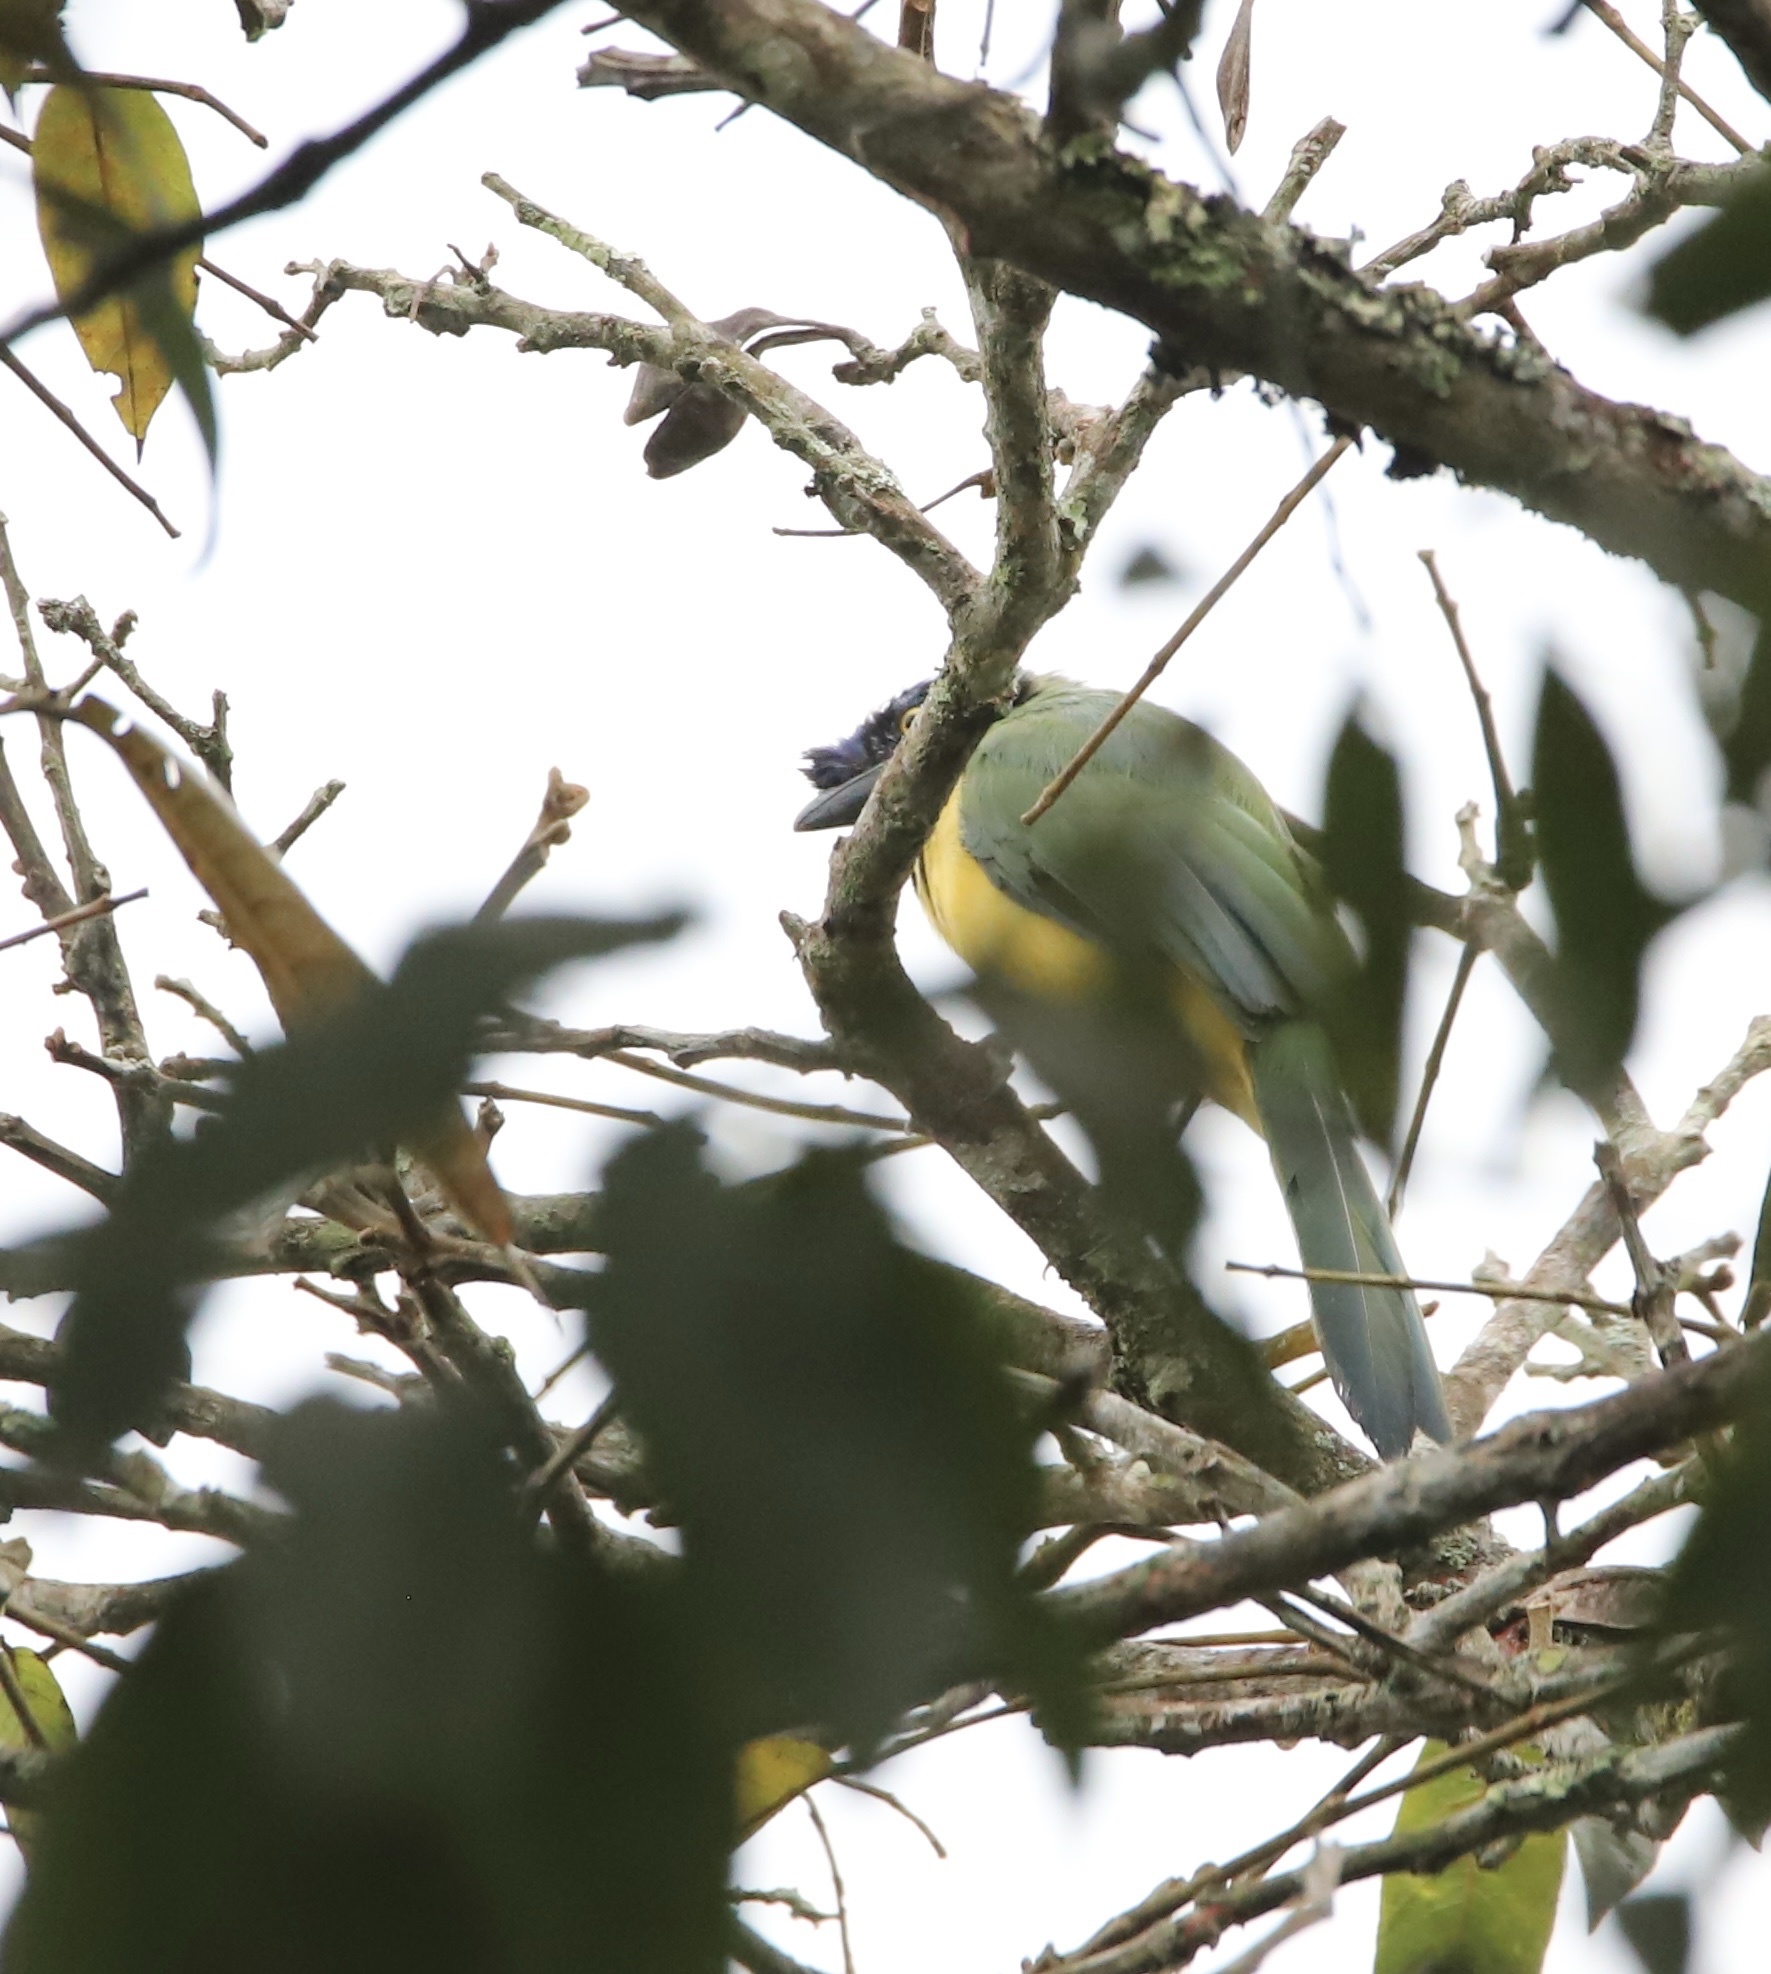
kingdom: Animalia
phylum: Chordata
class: Aves
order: Passeriformes
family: Corvidae
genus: Cyanocorax
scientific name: Cyanocorax yncas
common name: Green jay
